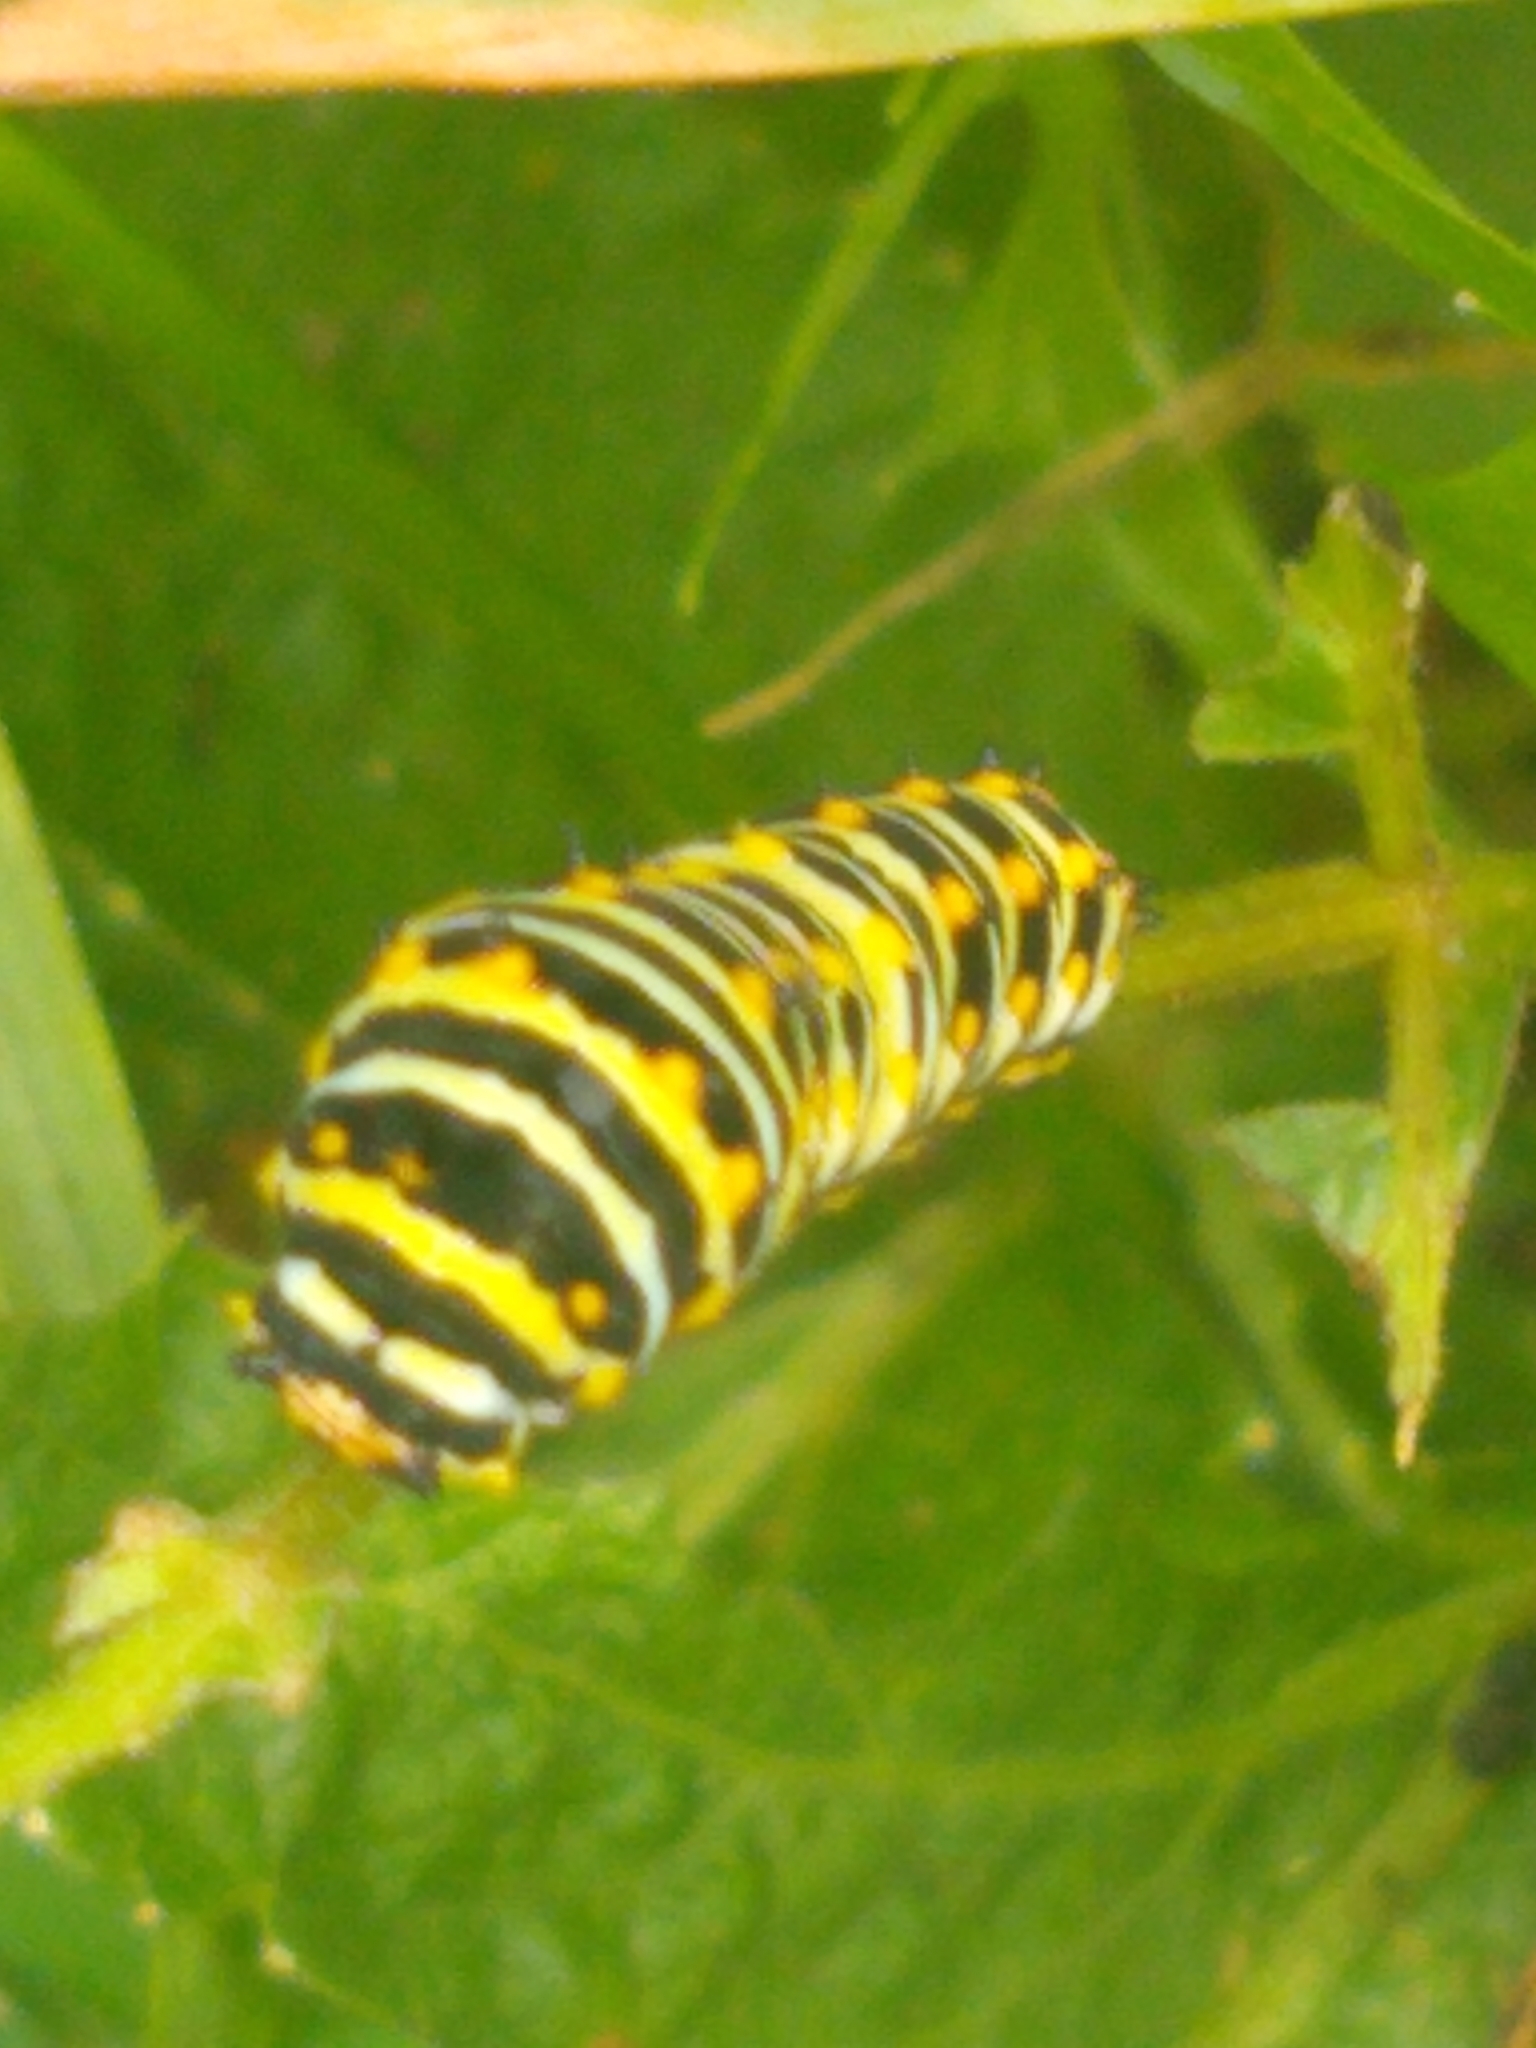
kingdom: Animalia
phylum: Arthropoda
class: Insecta
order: Lepidoptera
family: Papilionidae
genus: Papilio
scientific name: Papilio polyxenes
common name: Black swallowtail
